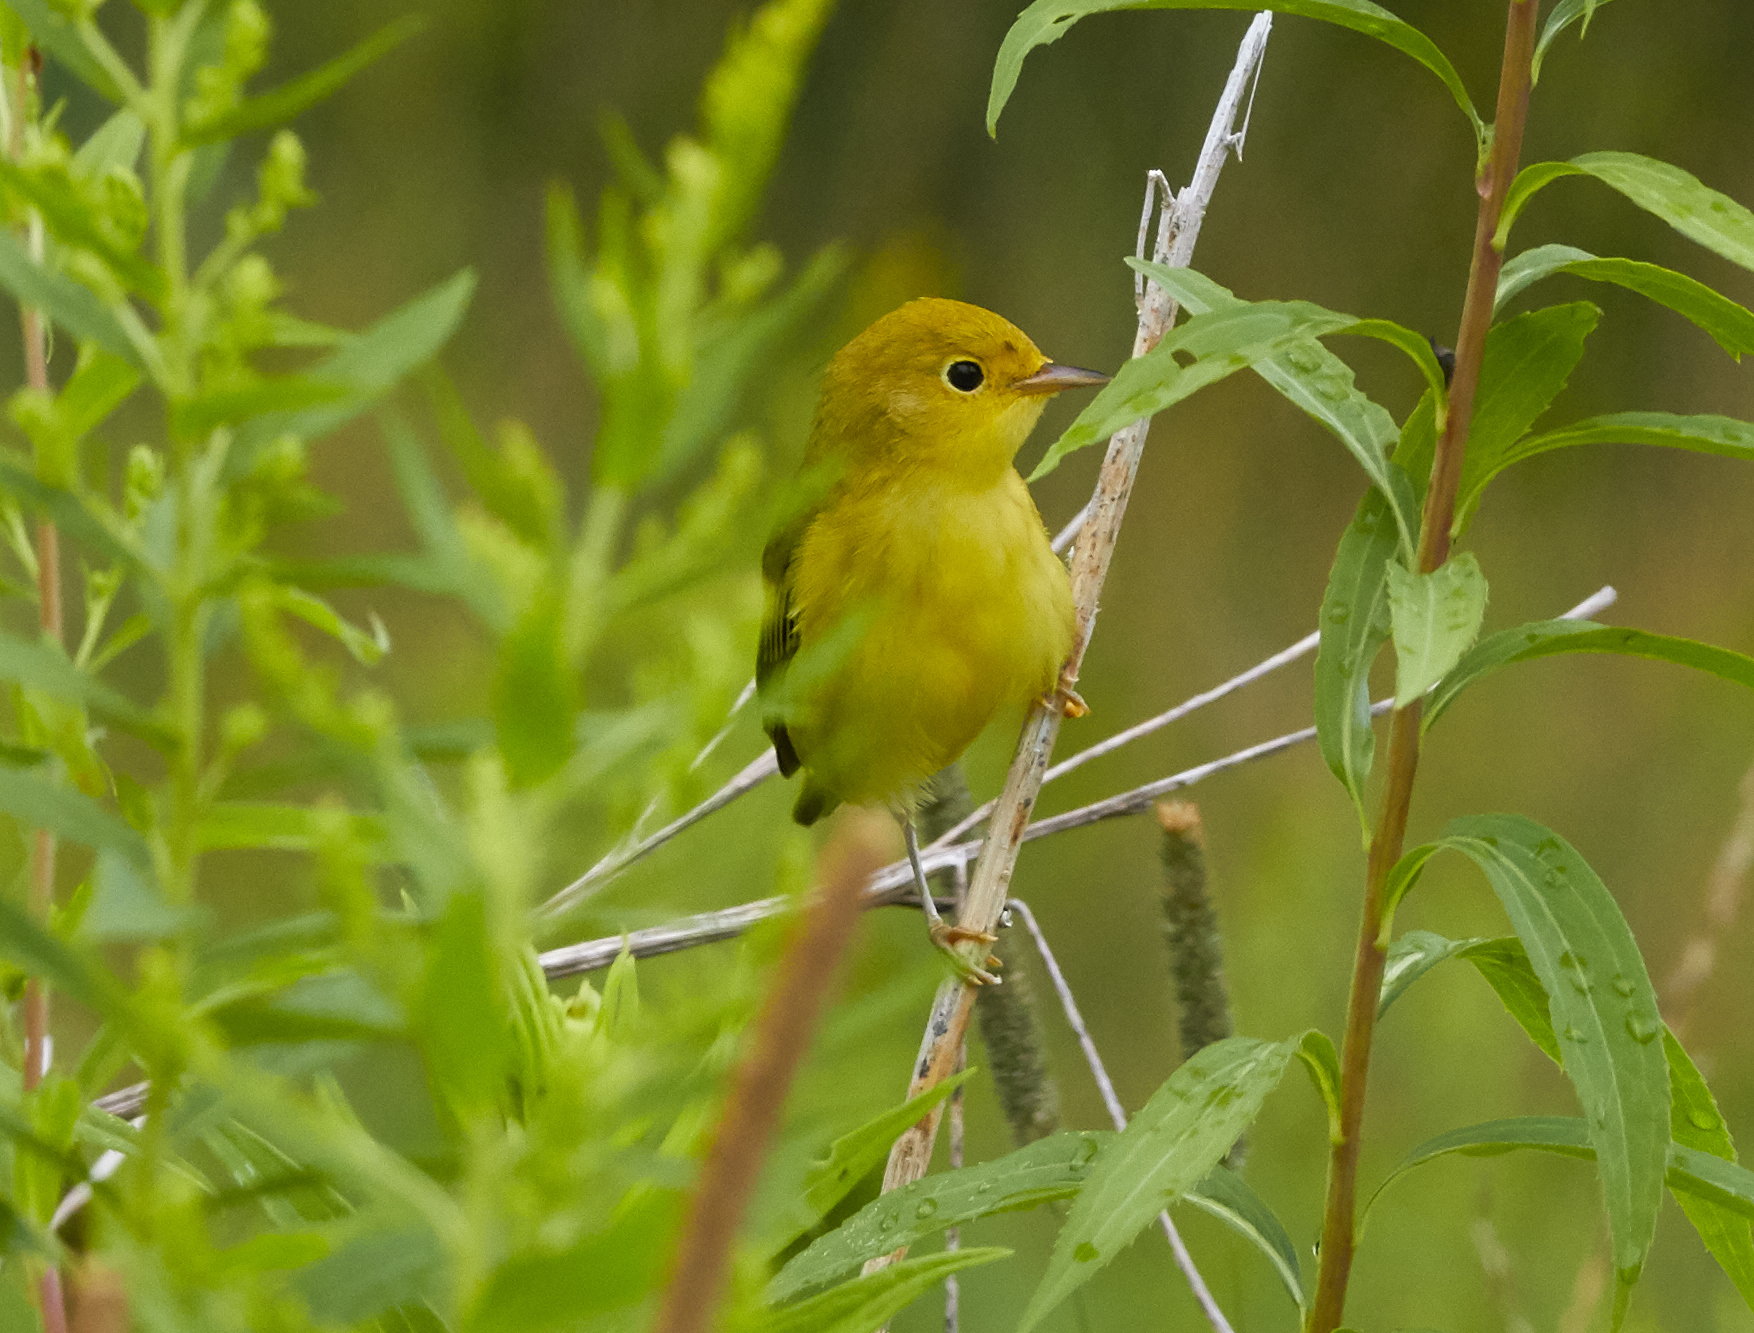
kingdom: Animalia
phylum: Chordata
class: Aves
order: Passeriformes
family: Parulidae
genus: Setophaga
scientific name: Setophaga petechia
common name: Yellow warbler
